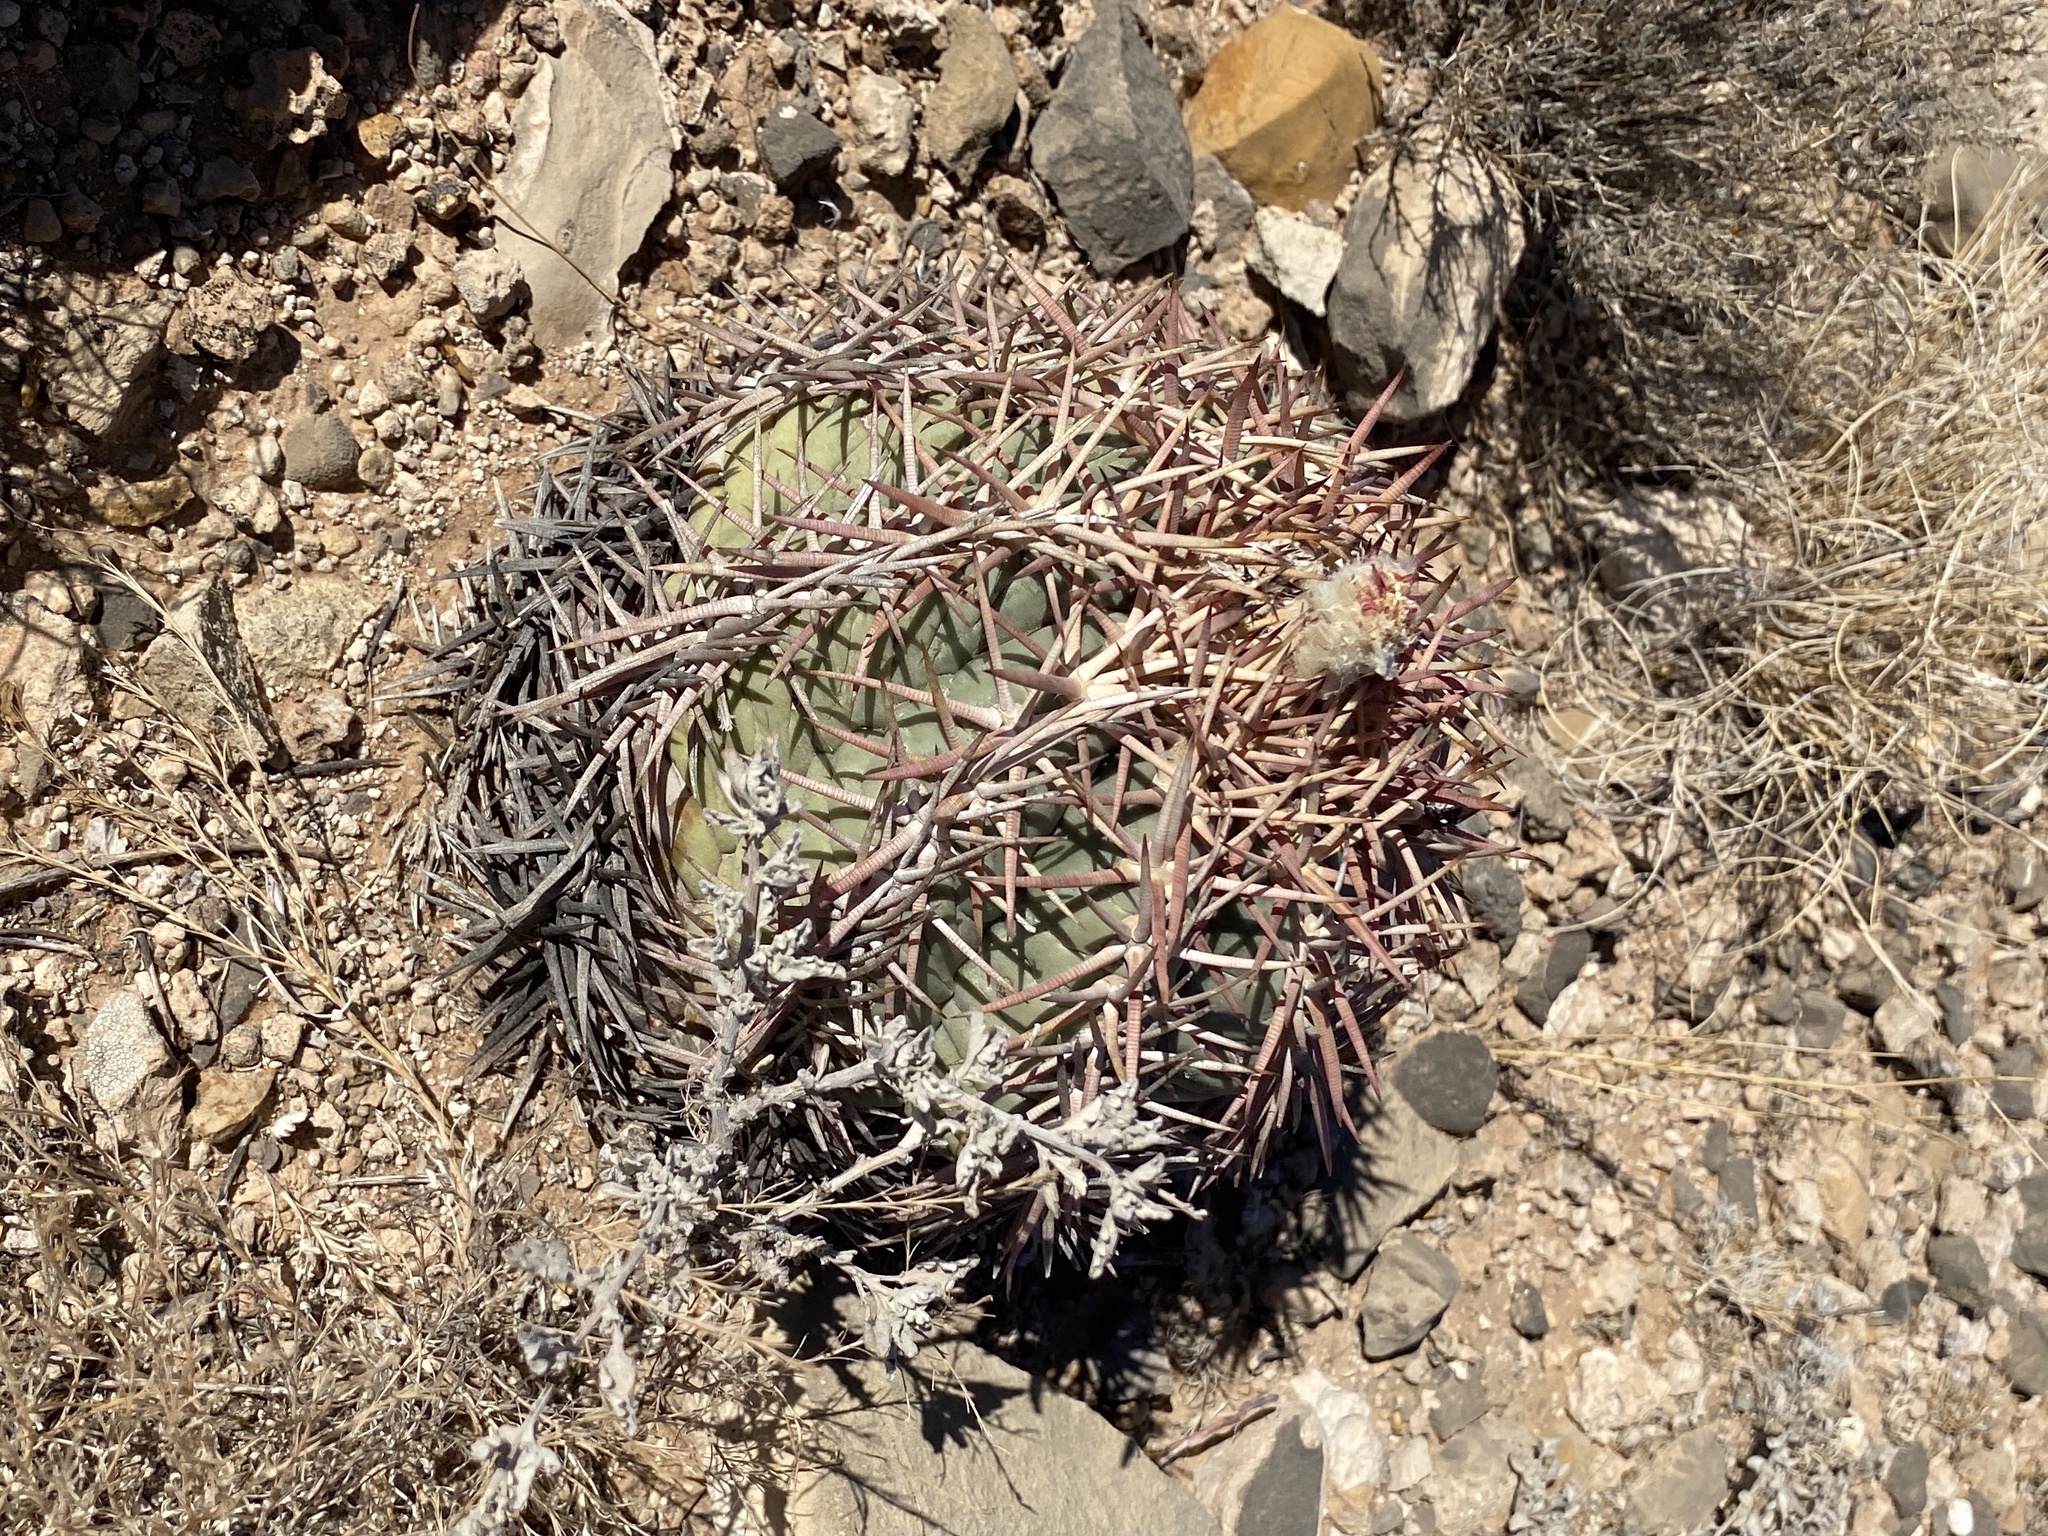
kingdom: Plantae
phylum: Tracheophyta
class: Magnoliopsida
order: Caryophyllales
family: Cactaceae
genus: Echinocactus
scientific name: Echinocactus horizonthalonius
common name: Devilshead
